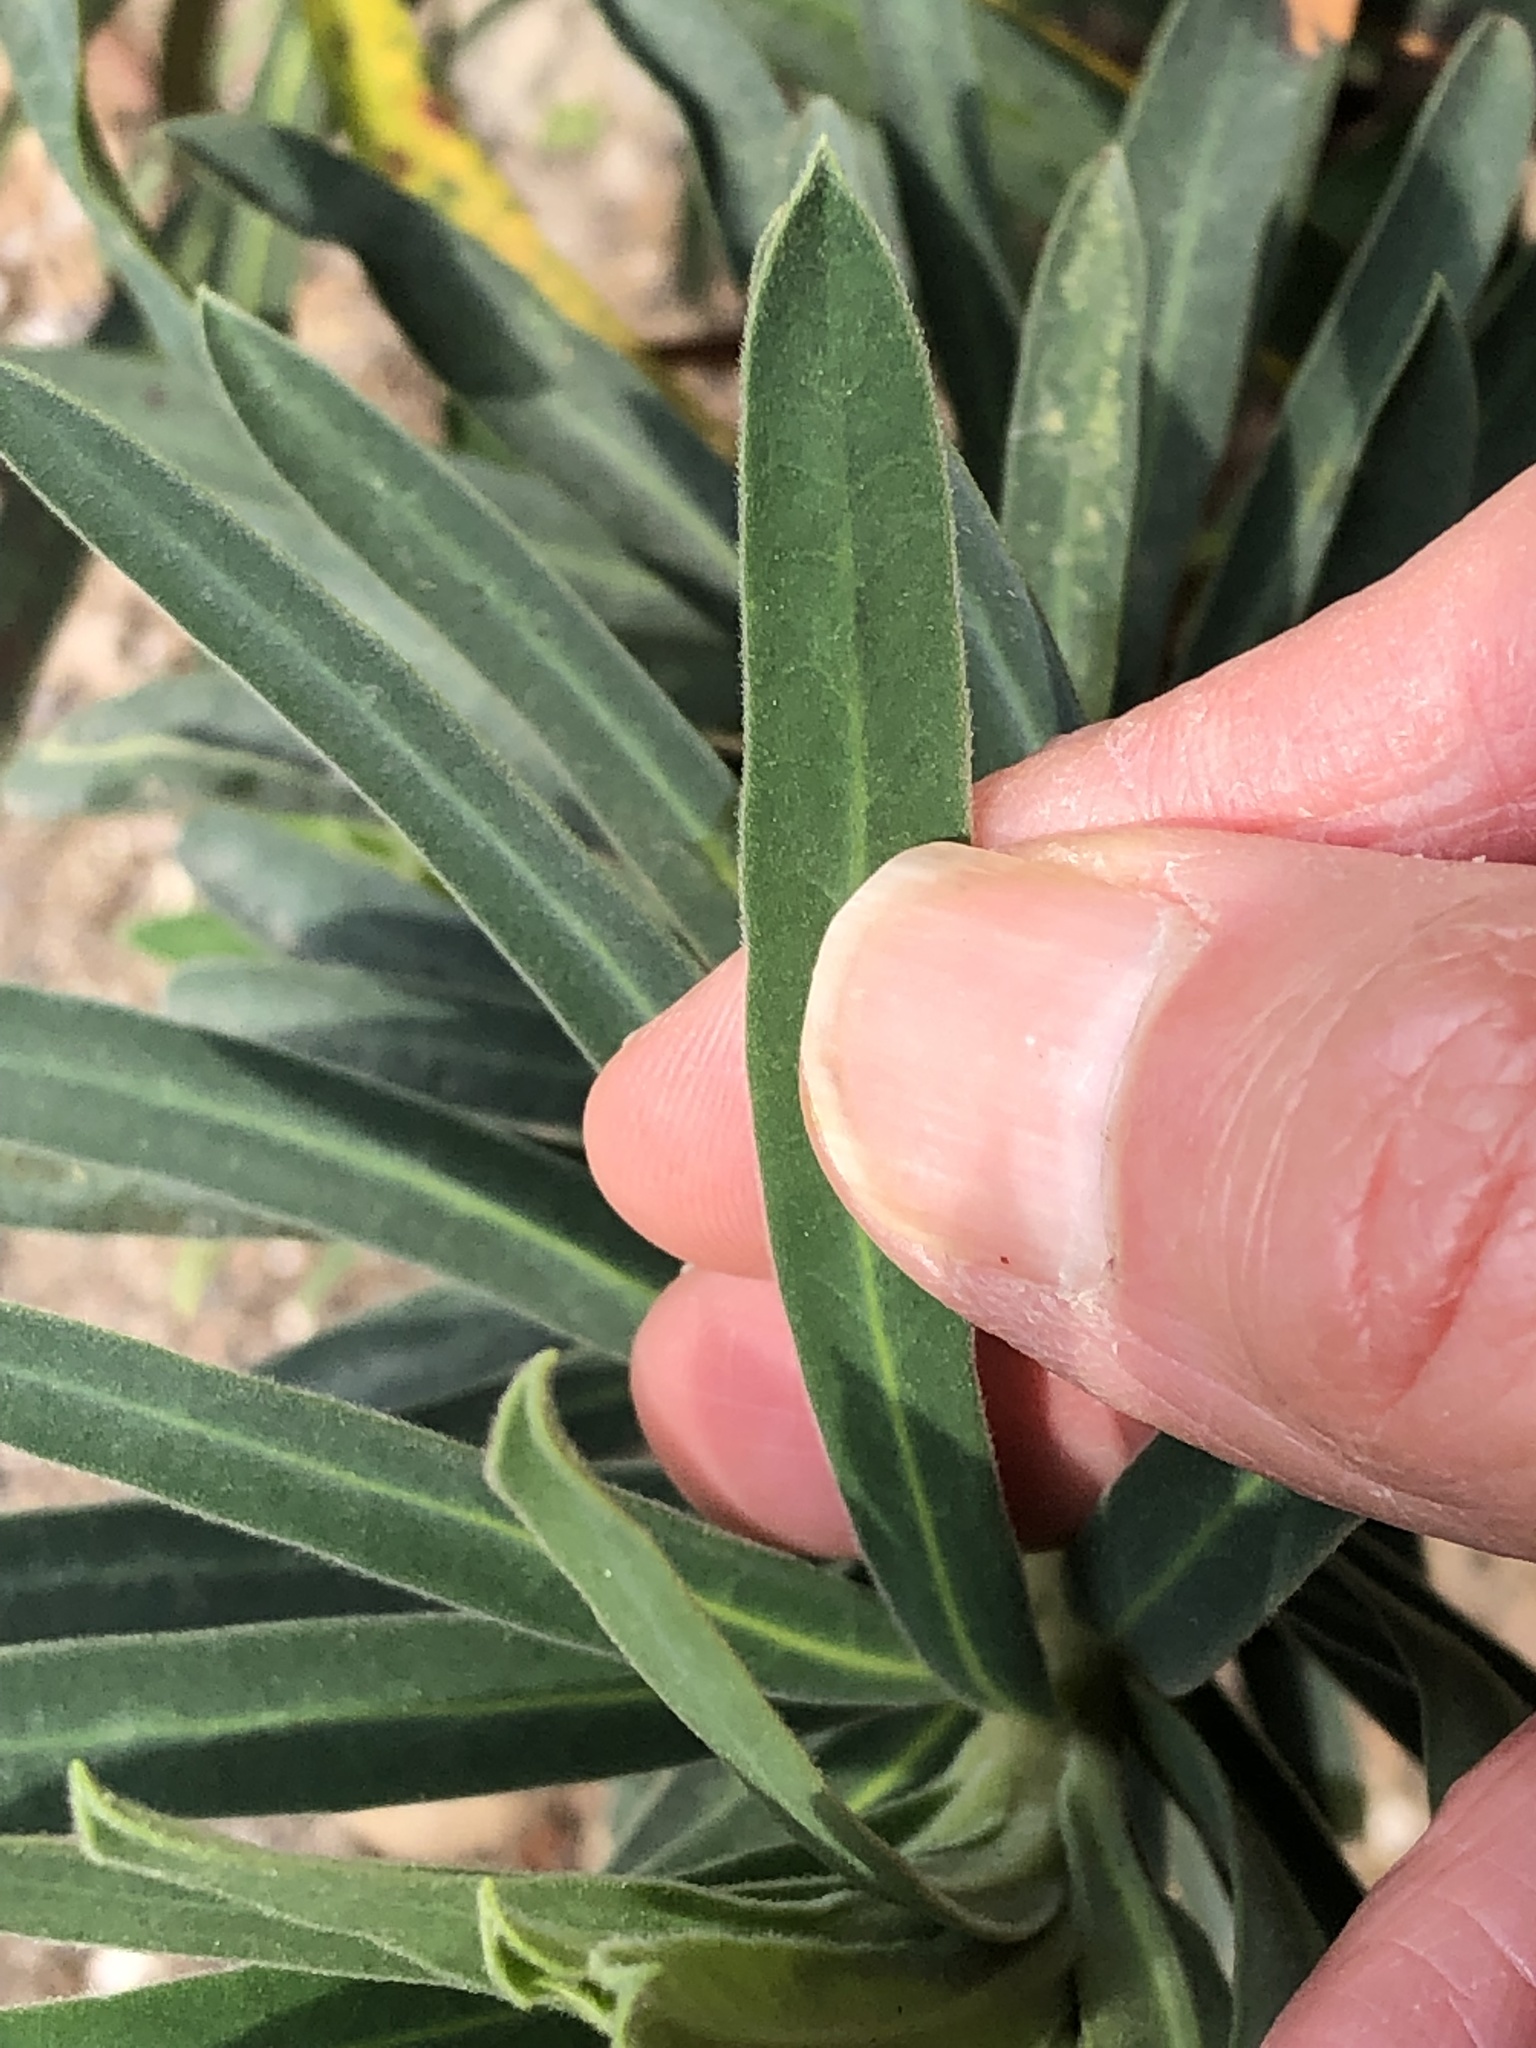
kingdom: Plantae
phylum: Tracheophyta
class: Magnoliopsida
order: Malpighiales
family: Euphorbiaceae
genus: Euphorbia
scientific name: Euphorbia characias
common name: Mediterranean spurge
